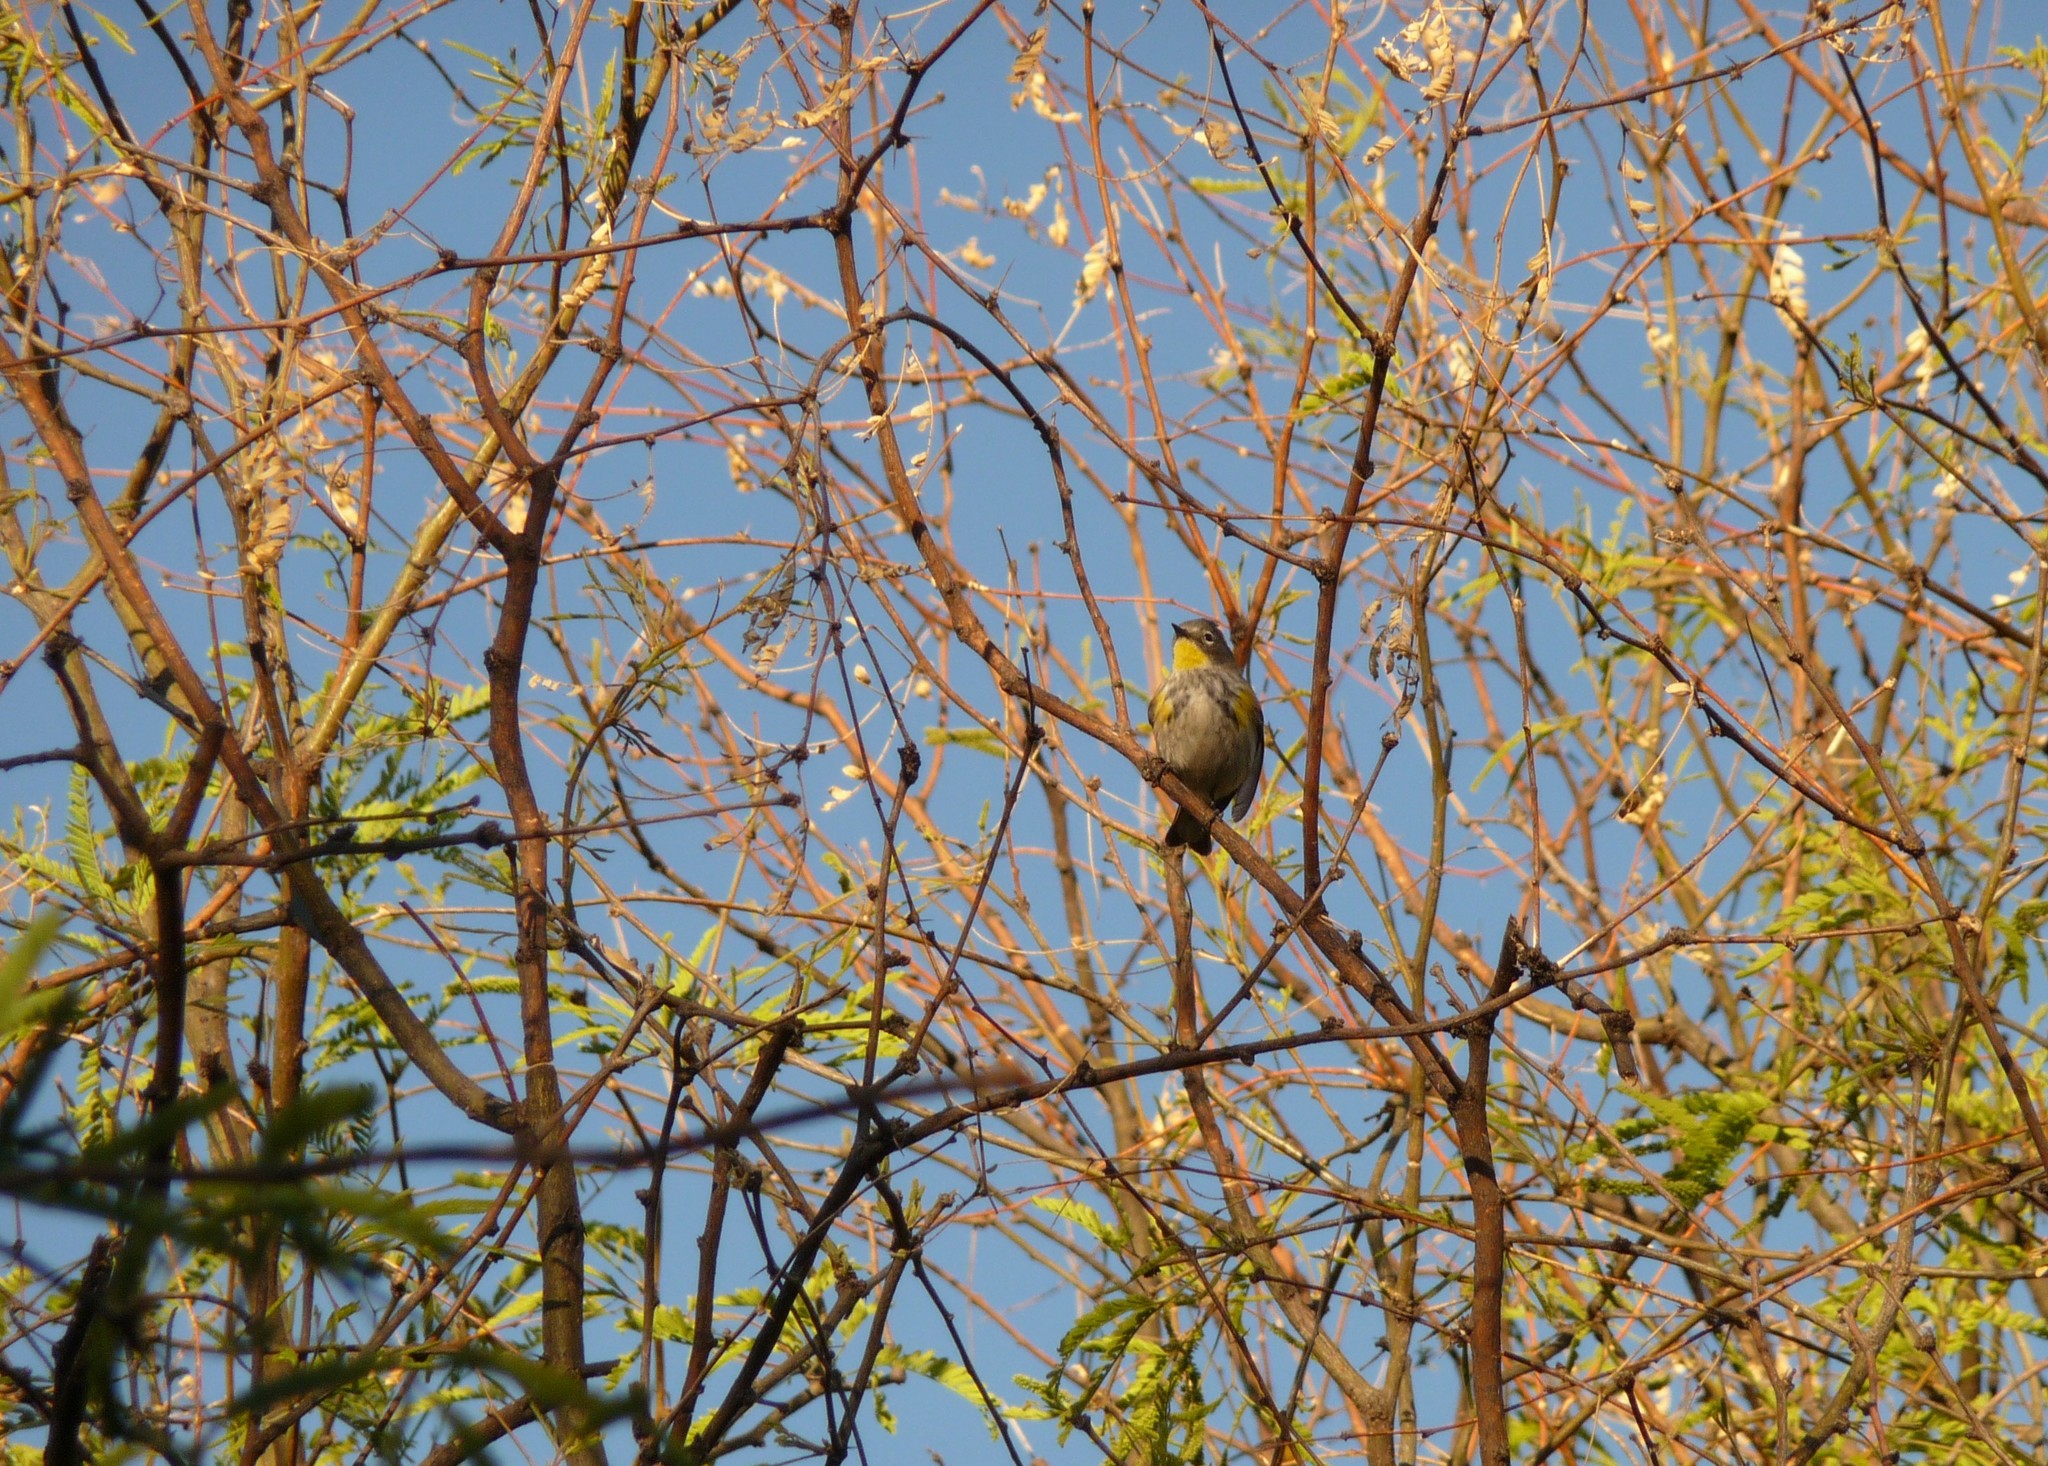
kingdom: Animalia
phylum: Chordata
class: Aves
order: Passeriformes
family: Parulidae
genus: Setophaga
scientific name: Setophaga coronata
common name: Myrtle warbler
